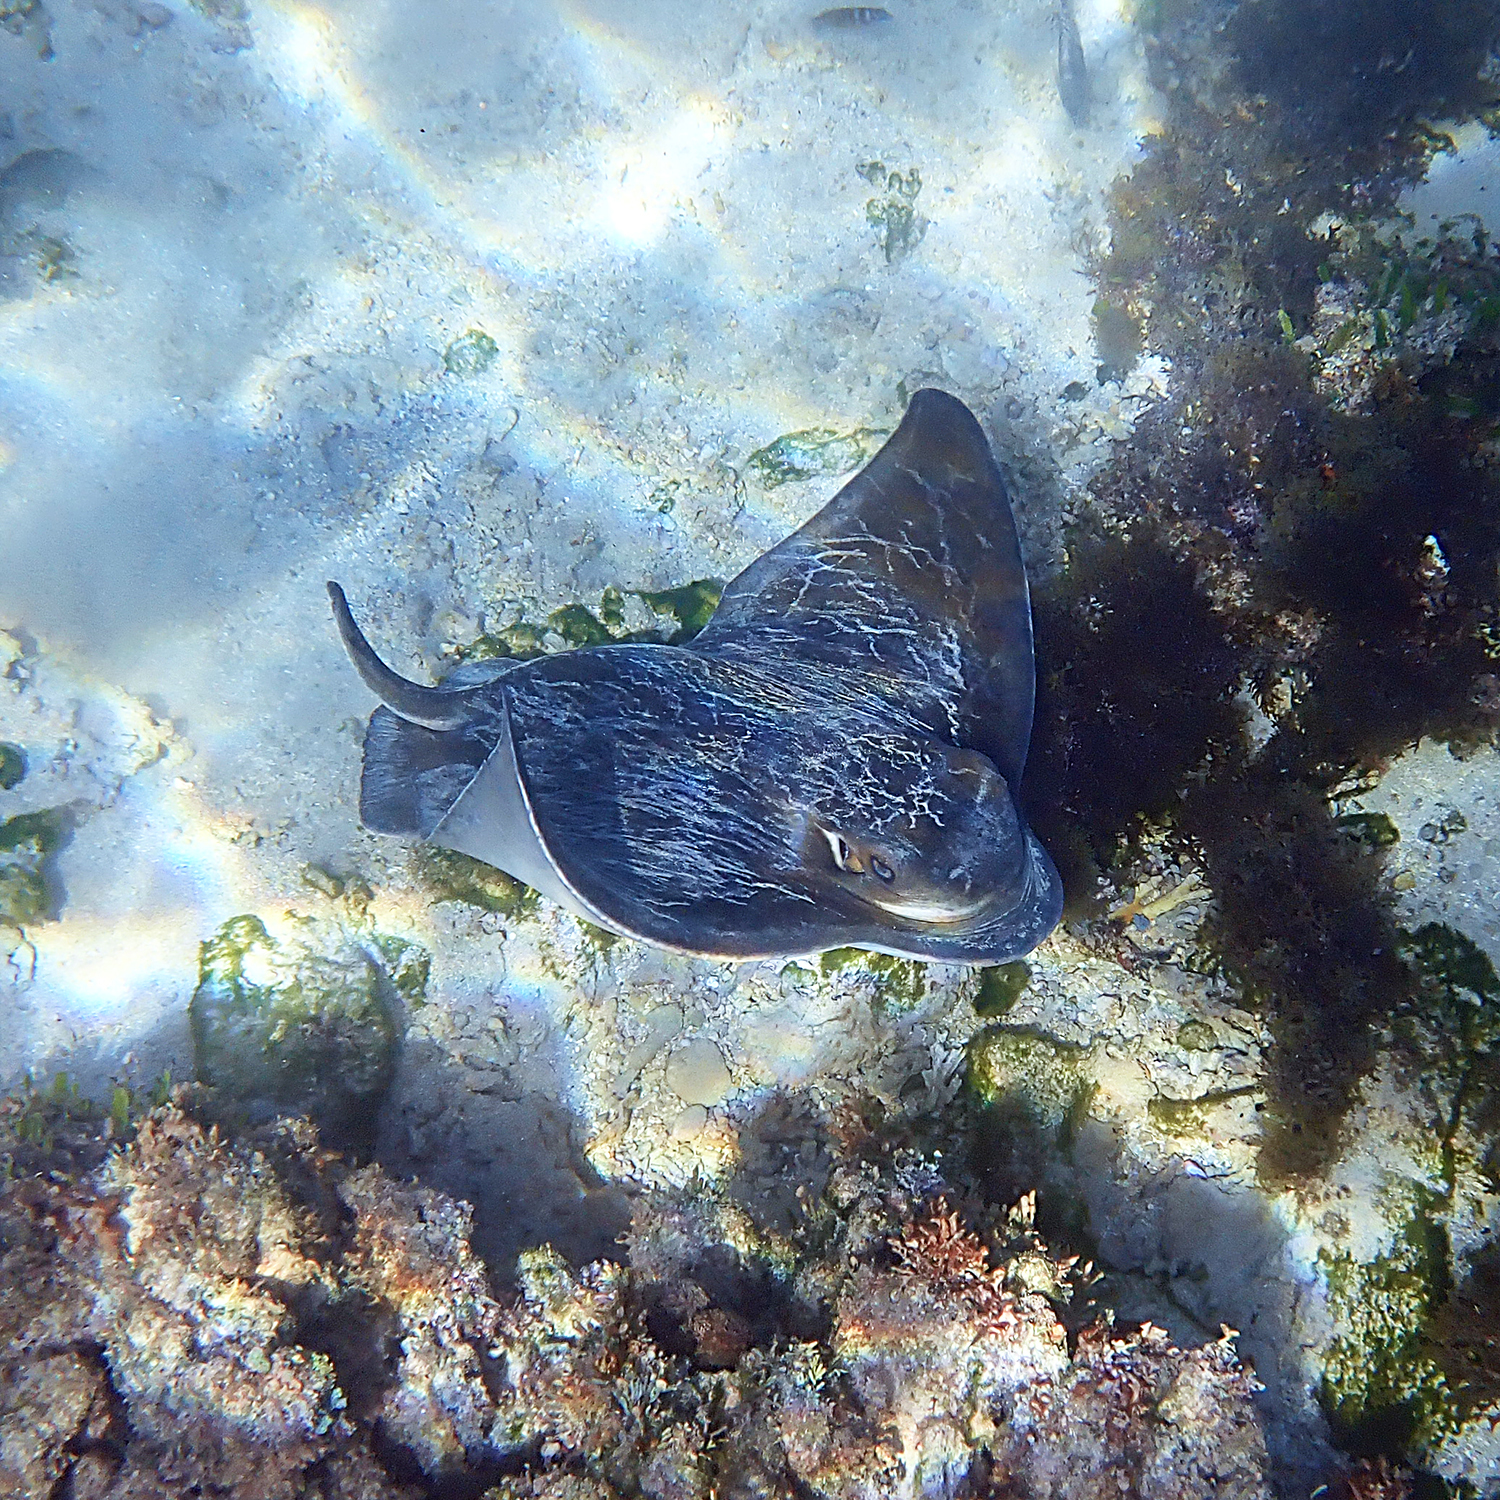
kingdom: Animalia
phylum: Chordata
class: Elasmobranchii
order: Myliobatiformes
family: Myliobatidae
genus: Myliobatis
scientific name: Myliobatis tenuicaudatus
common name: Eagle ray
